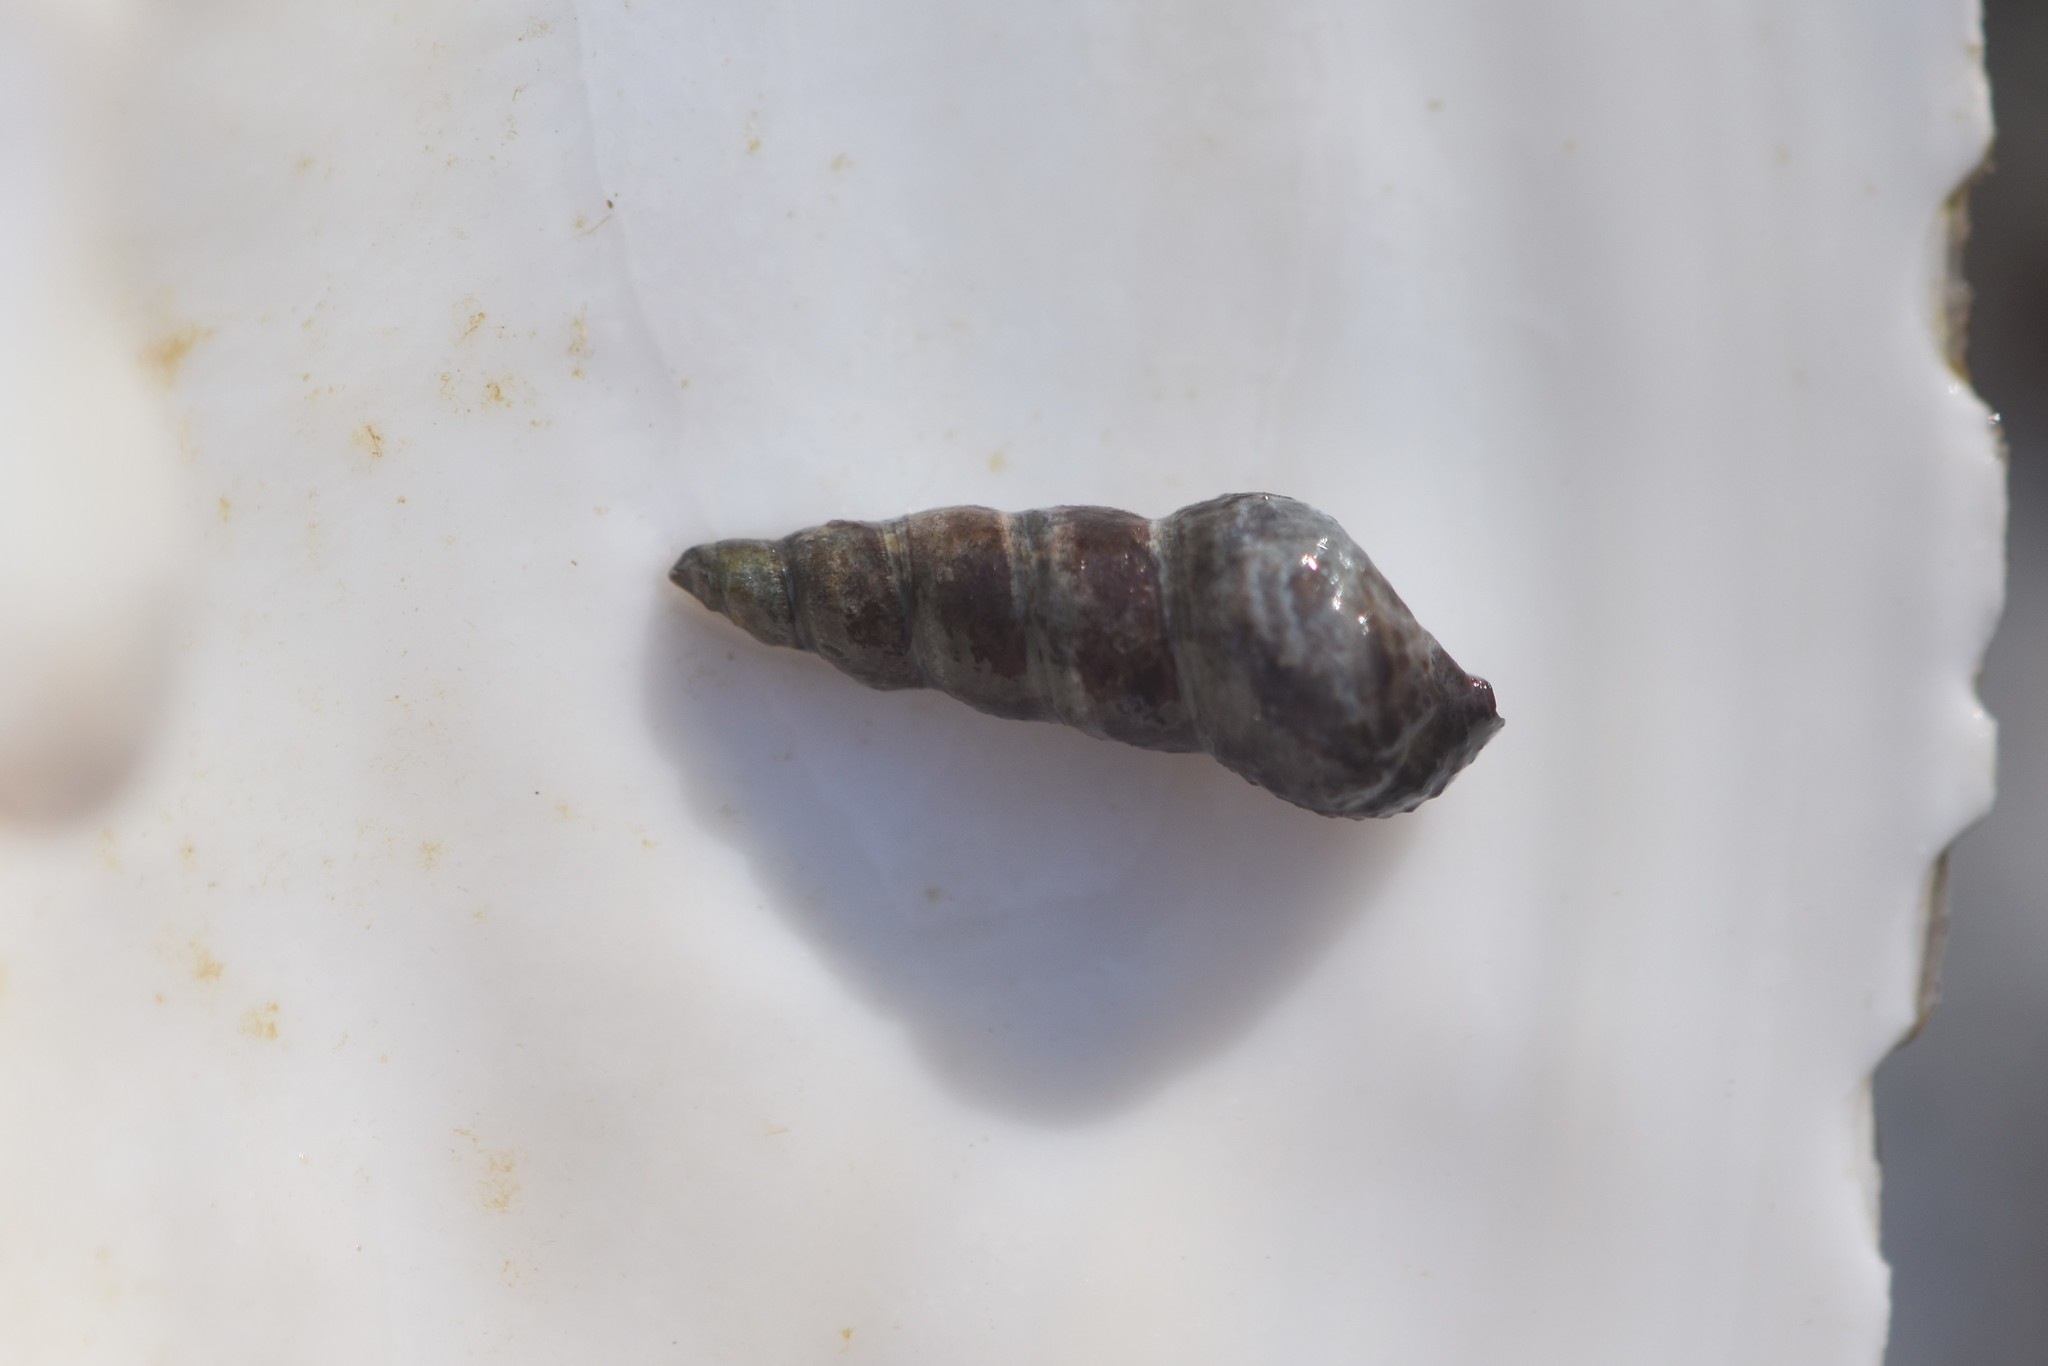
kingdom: Animalia
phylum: Mollusca
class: Gastropoda
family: Batillariidae
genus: Batillaria
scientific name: Batillaria attramentaria
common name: Japanese false cerith
